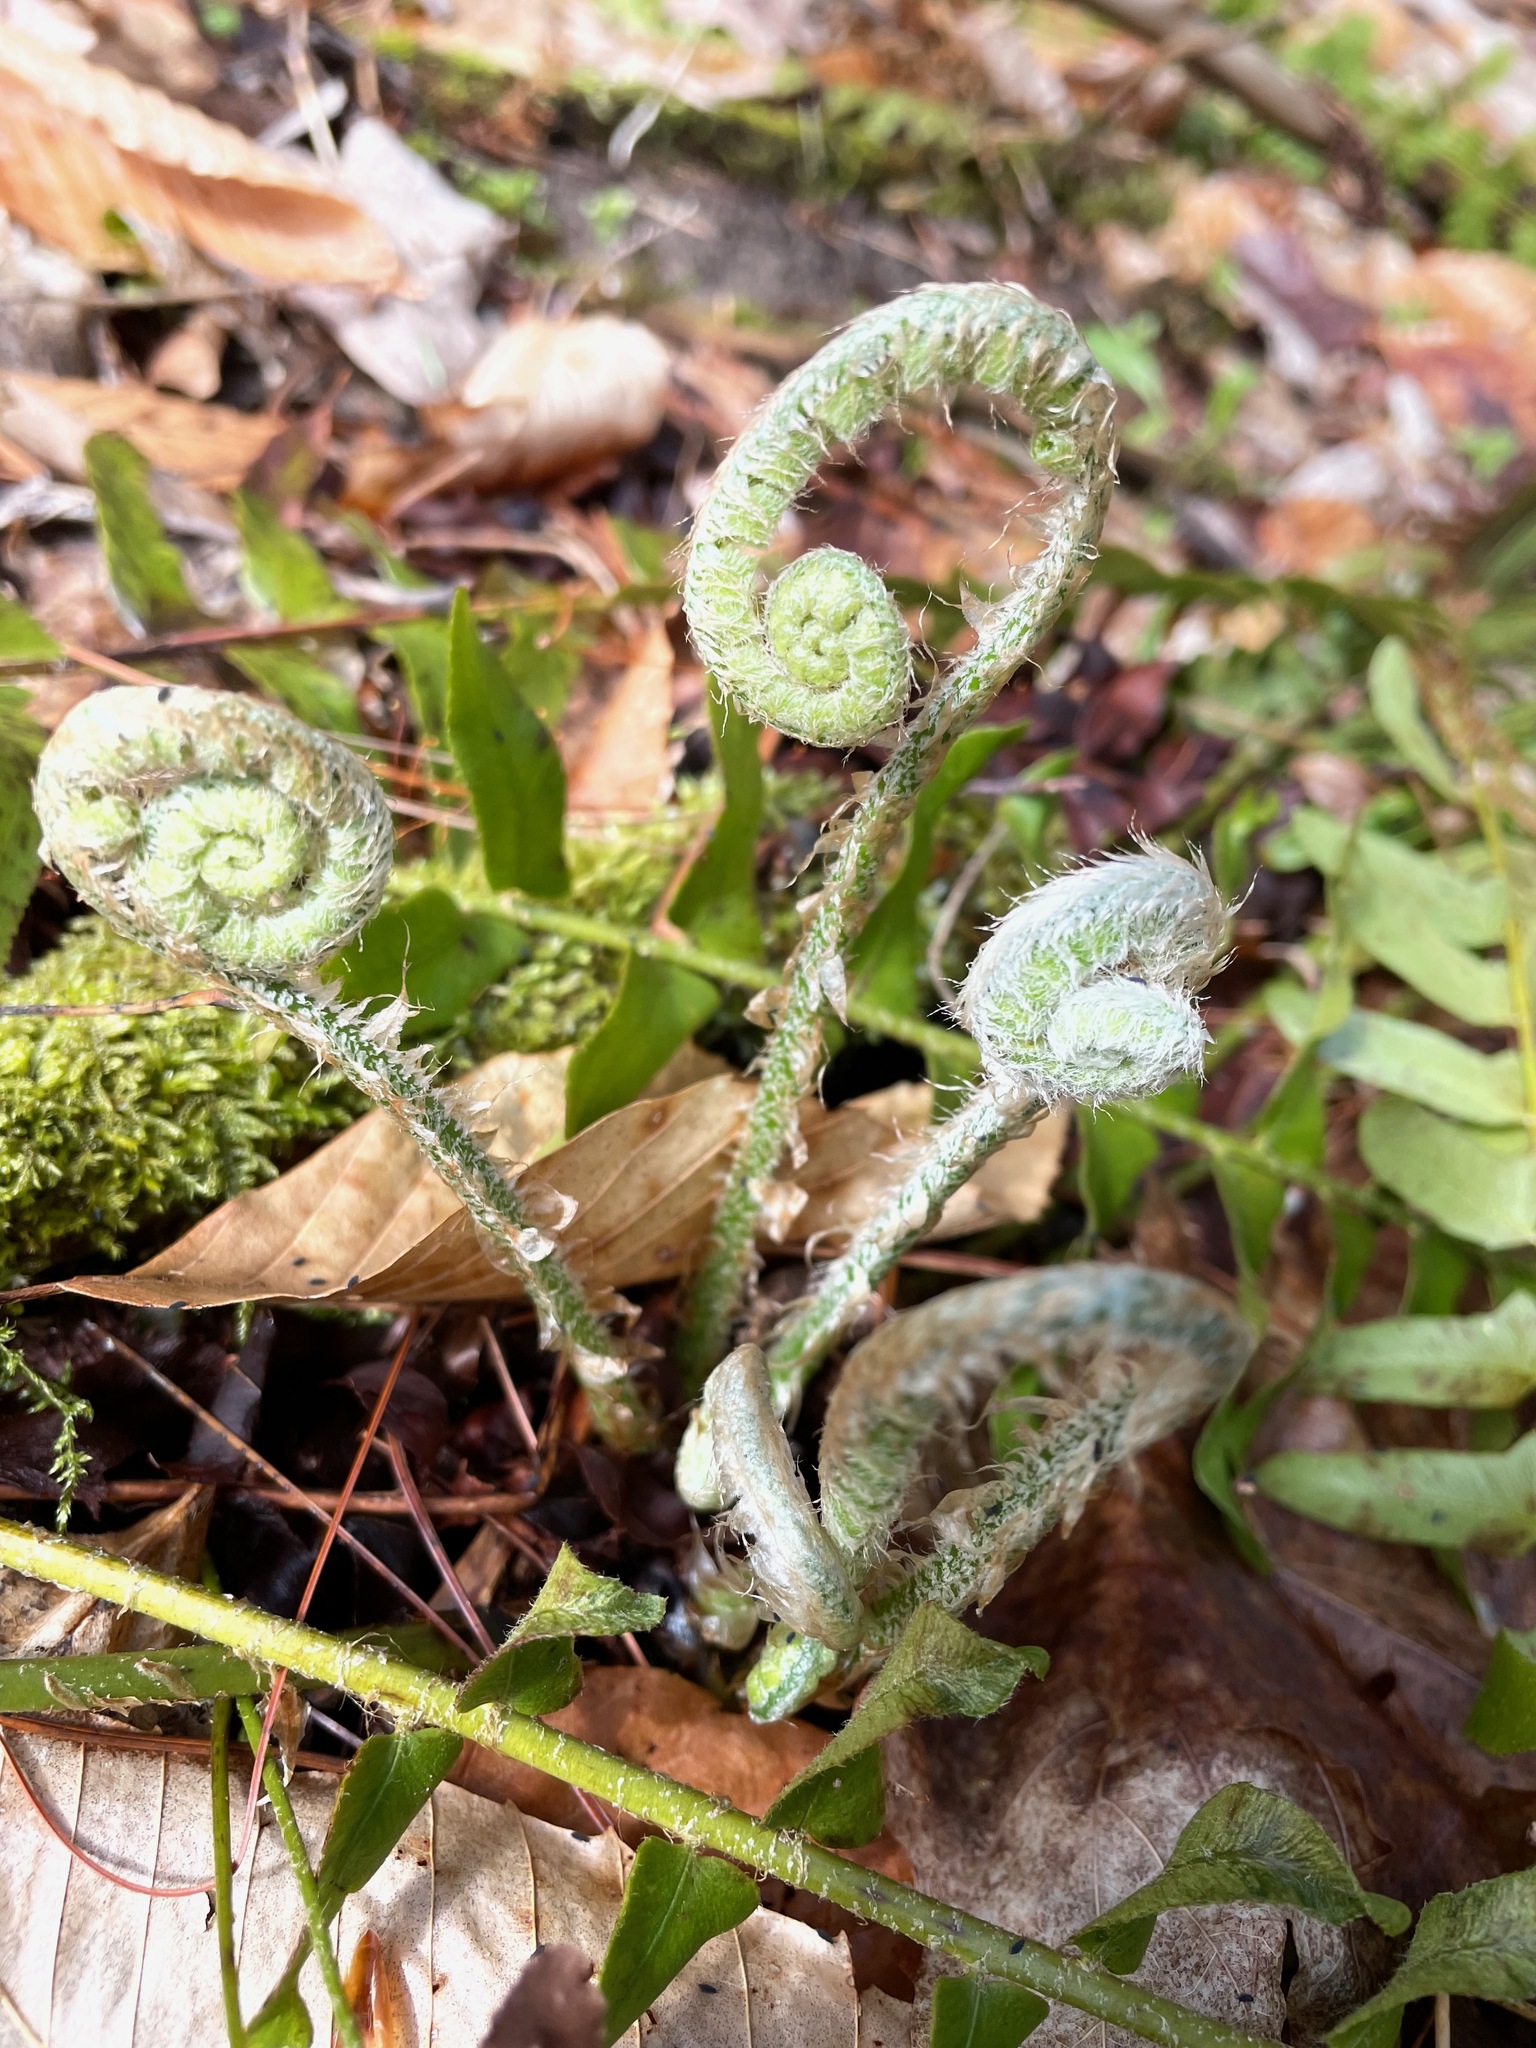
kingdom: Plantae
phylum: Tracheophyta
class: Polypodiopsida
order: Polypodiales
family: Dryopteridaceae
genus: Polystichum
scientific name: Polystichum acrostichoides
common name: Christmas fern
